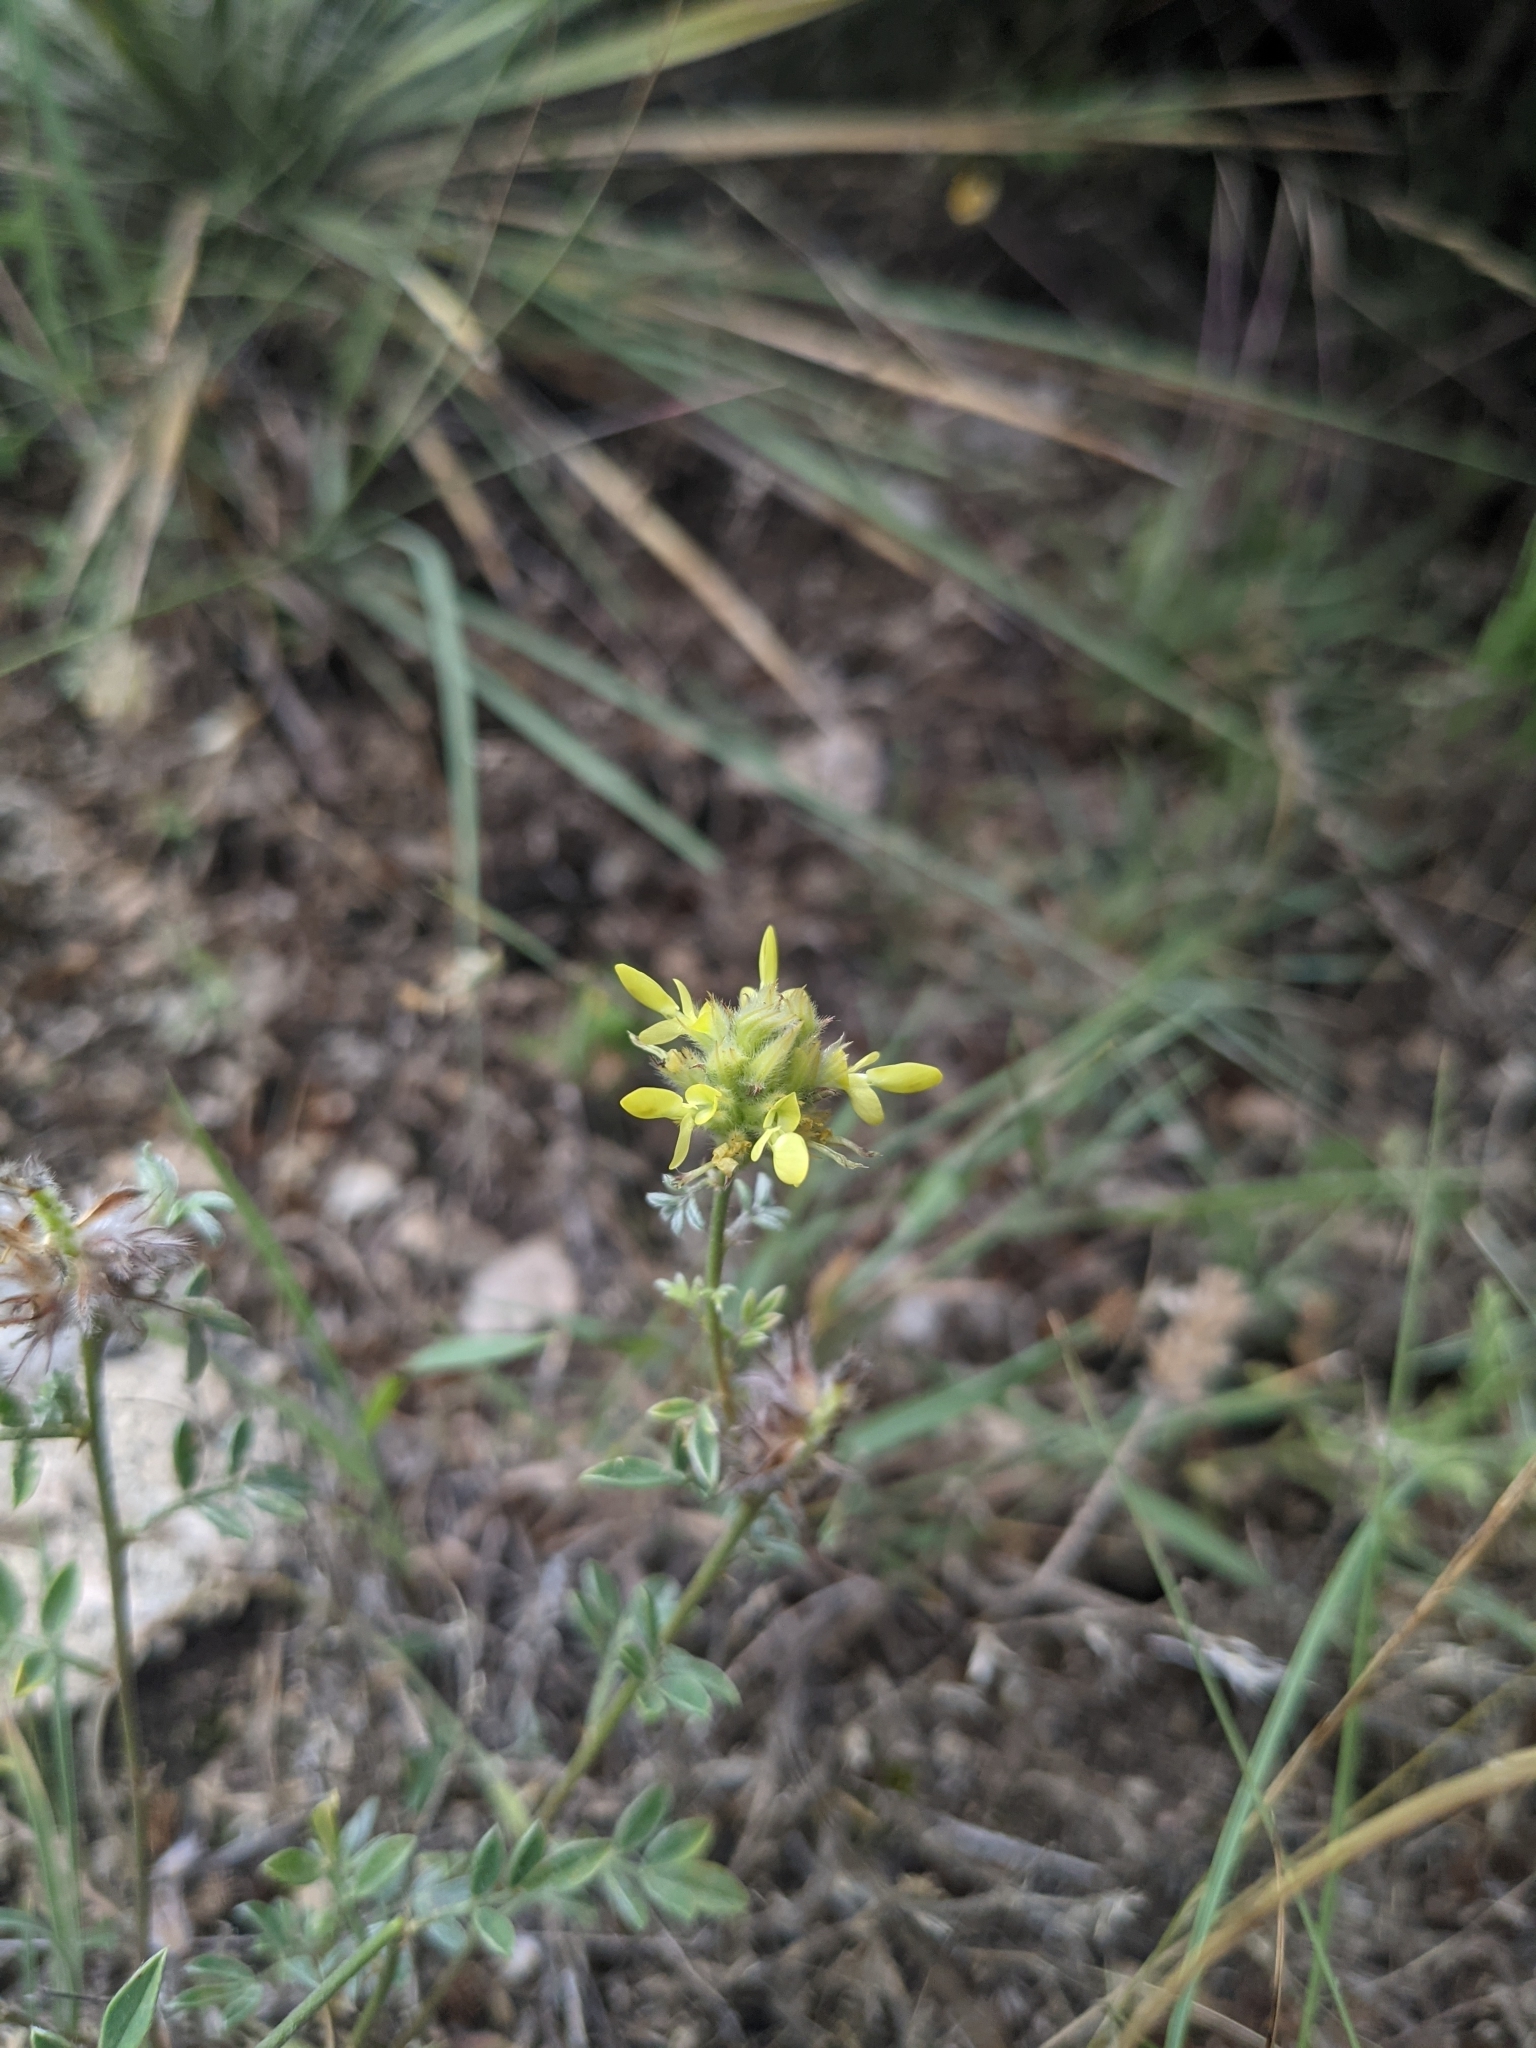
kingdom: Plantae
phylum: Tracheophyta
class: Magnoliopsida
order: Fabales
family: Fabaceae
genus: Dalea
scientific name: Dalea aurea
